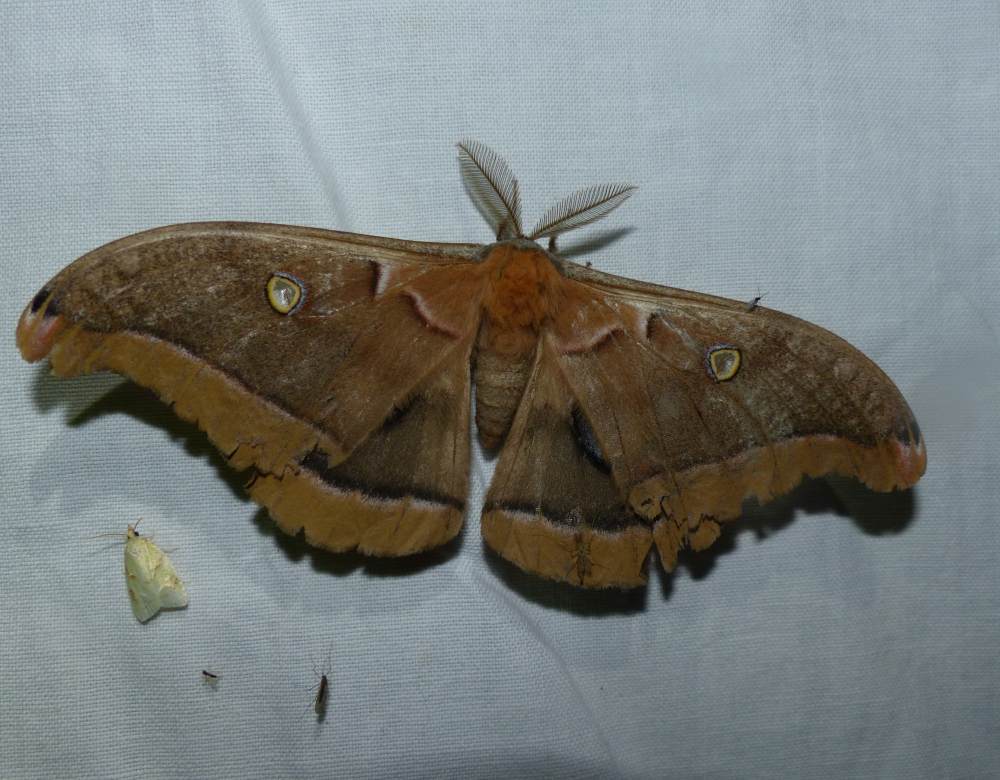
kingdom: Animalia
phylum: Arthropoda
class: Insecta
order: Lepidoptera
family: Saturniidae
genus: Antheraea
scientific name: Antheraea polyphemus
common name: Polyphemus moth
